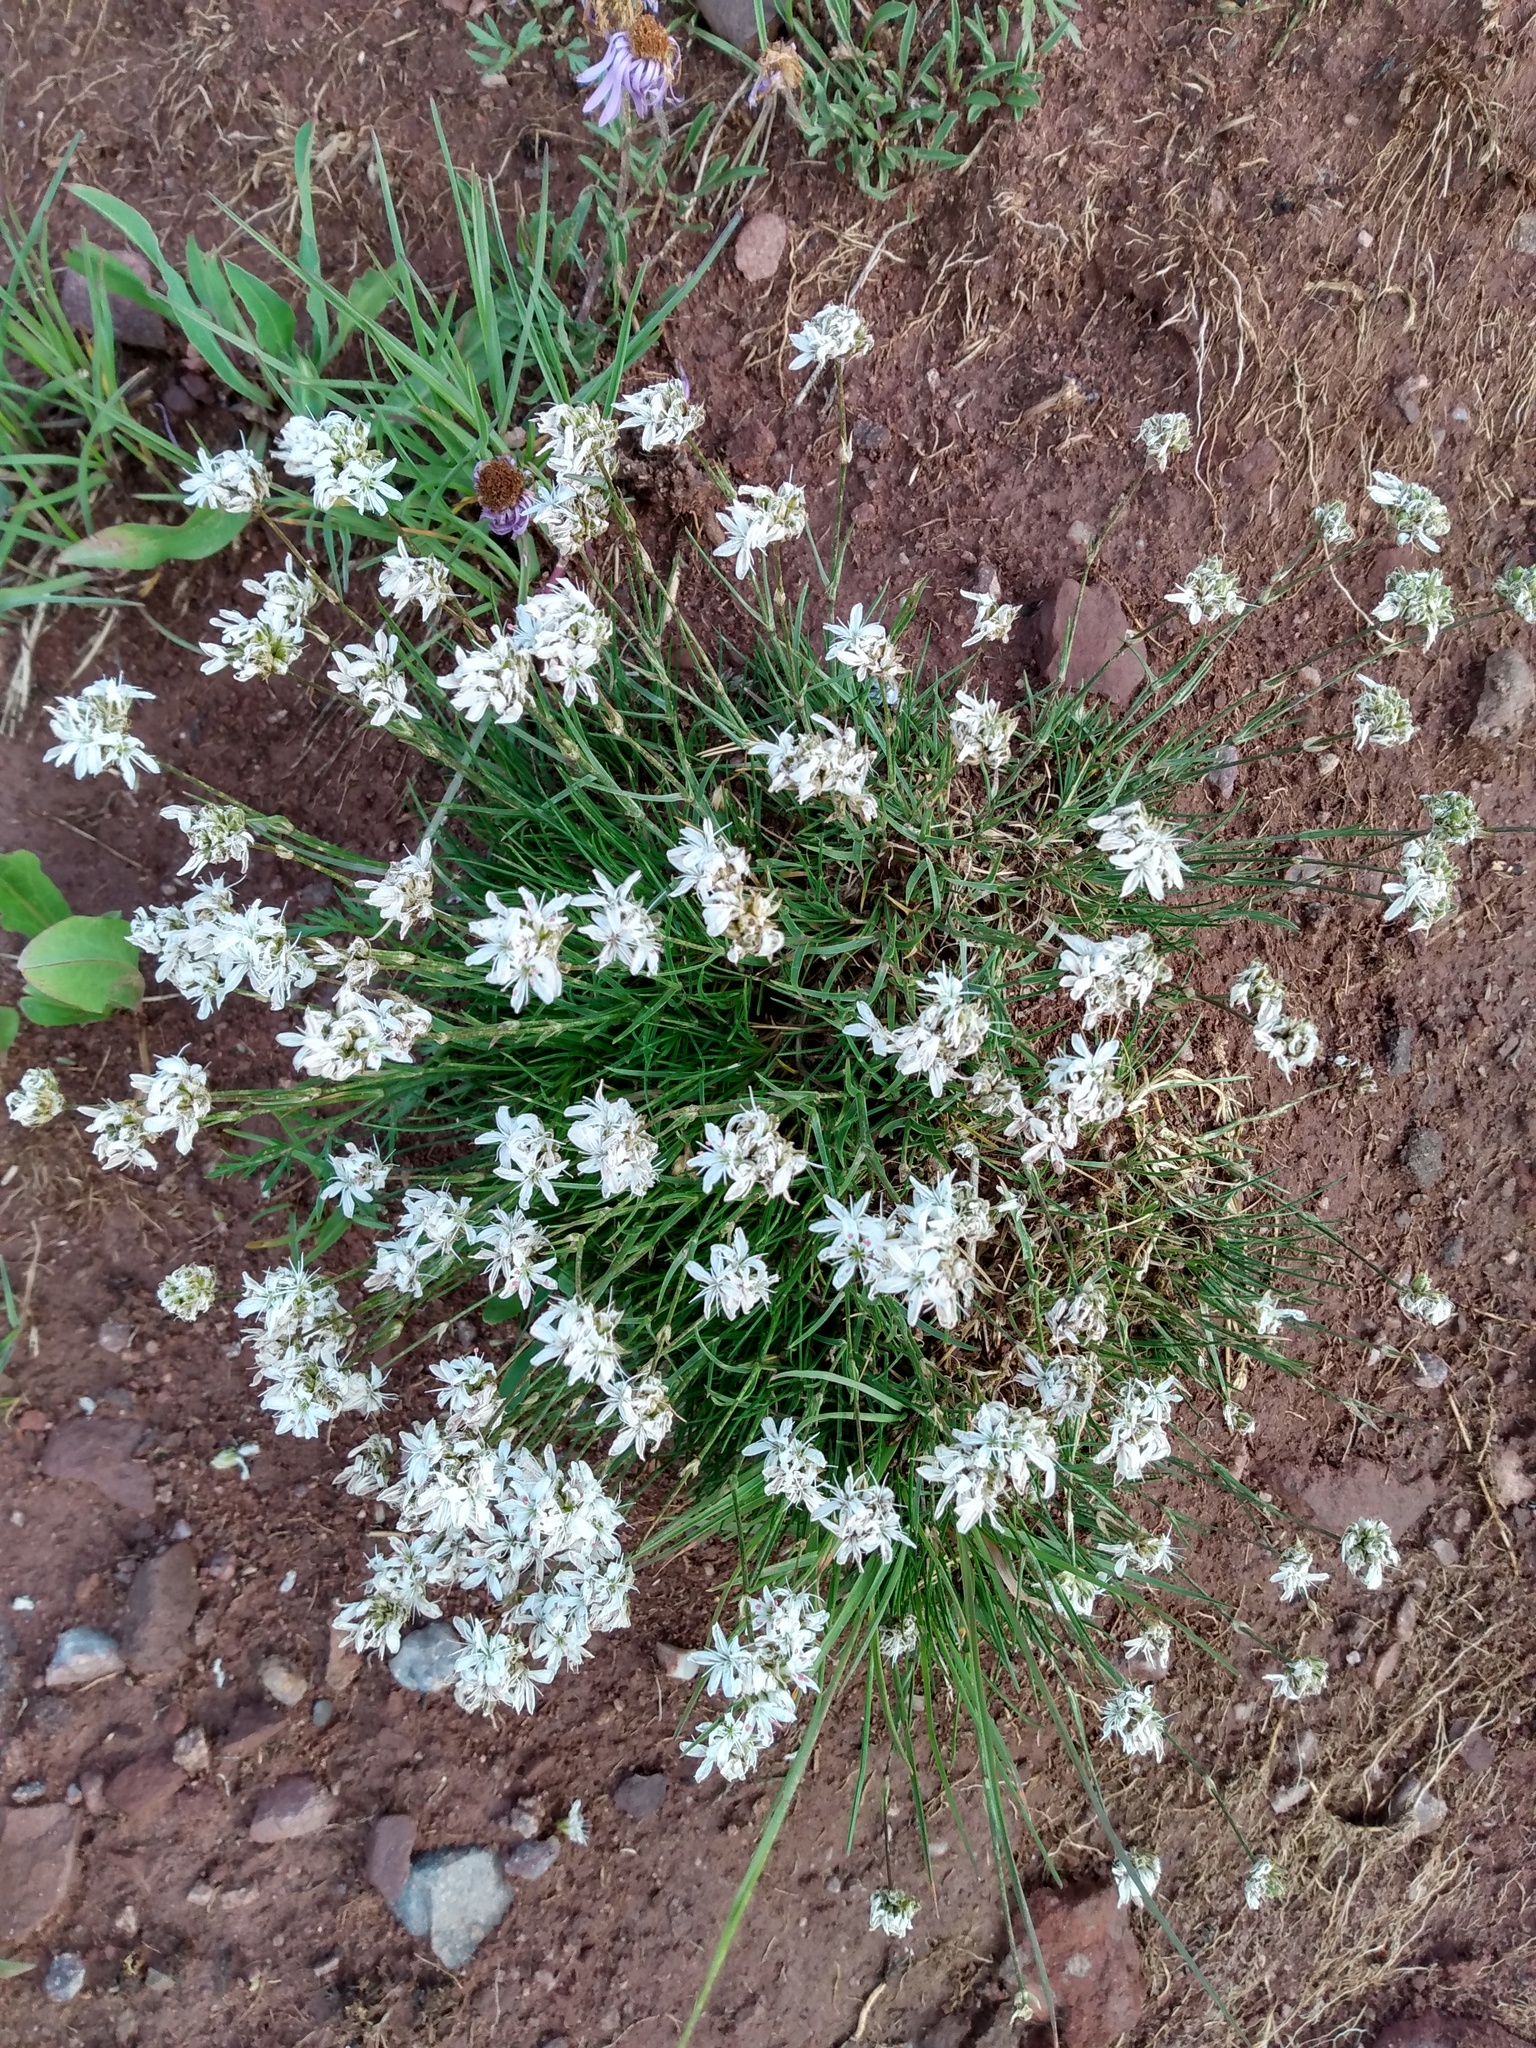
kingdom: Plantae
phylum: Tracheophyta
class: Magnoliopsida
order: Caryophyllales
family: Caryophyllaceae
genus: Eremogone
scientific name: Eremogone congesta
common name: Ballhead sandwort
